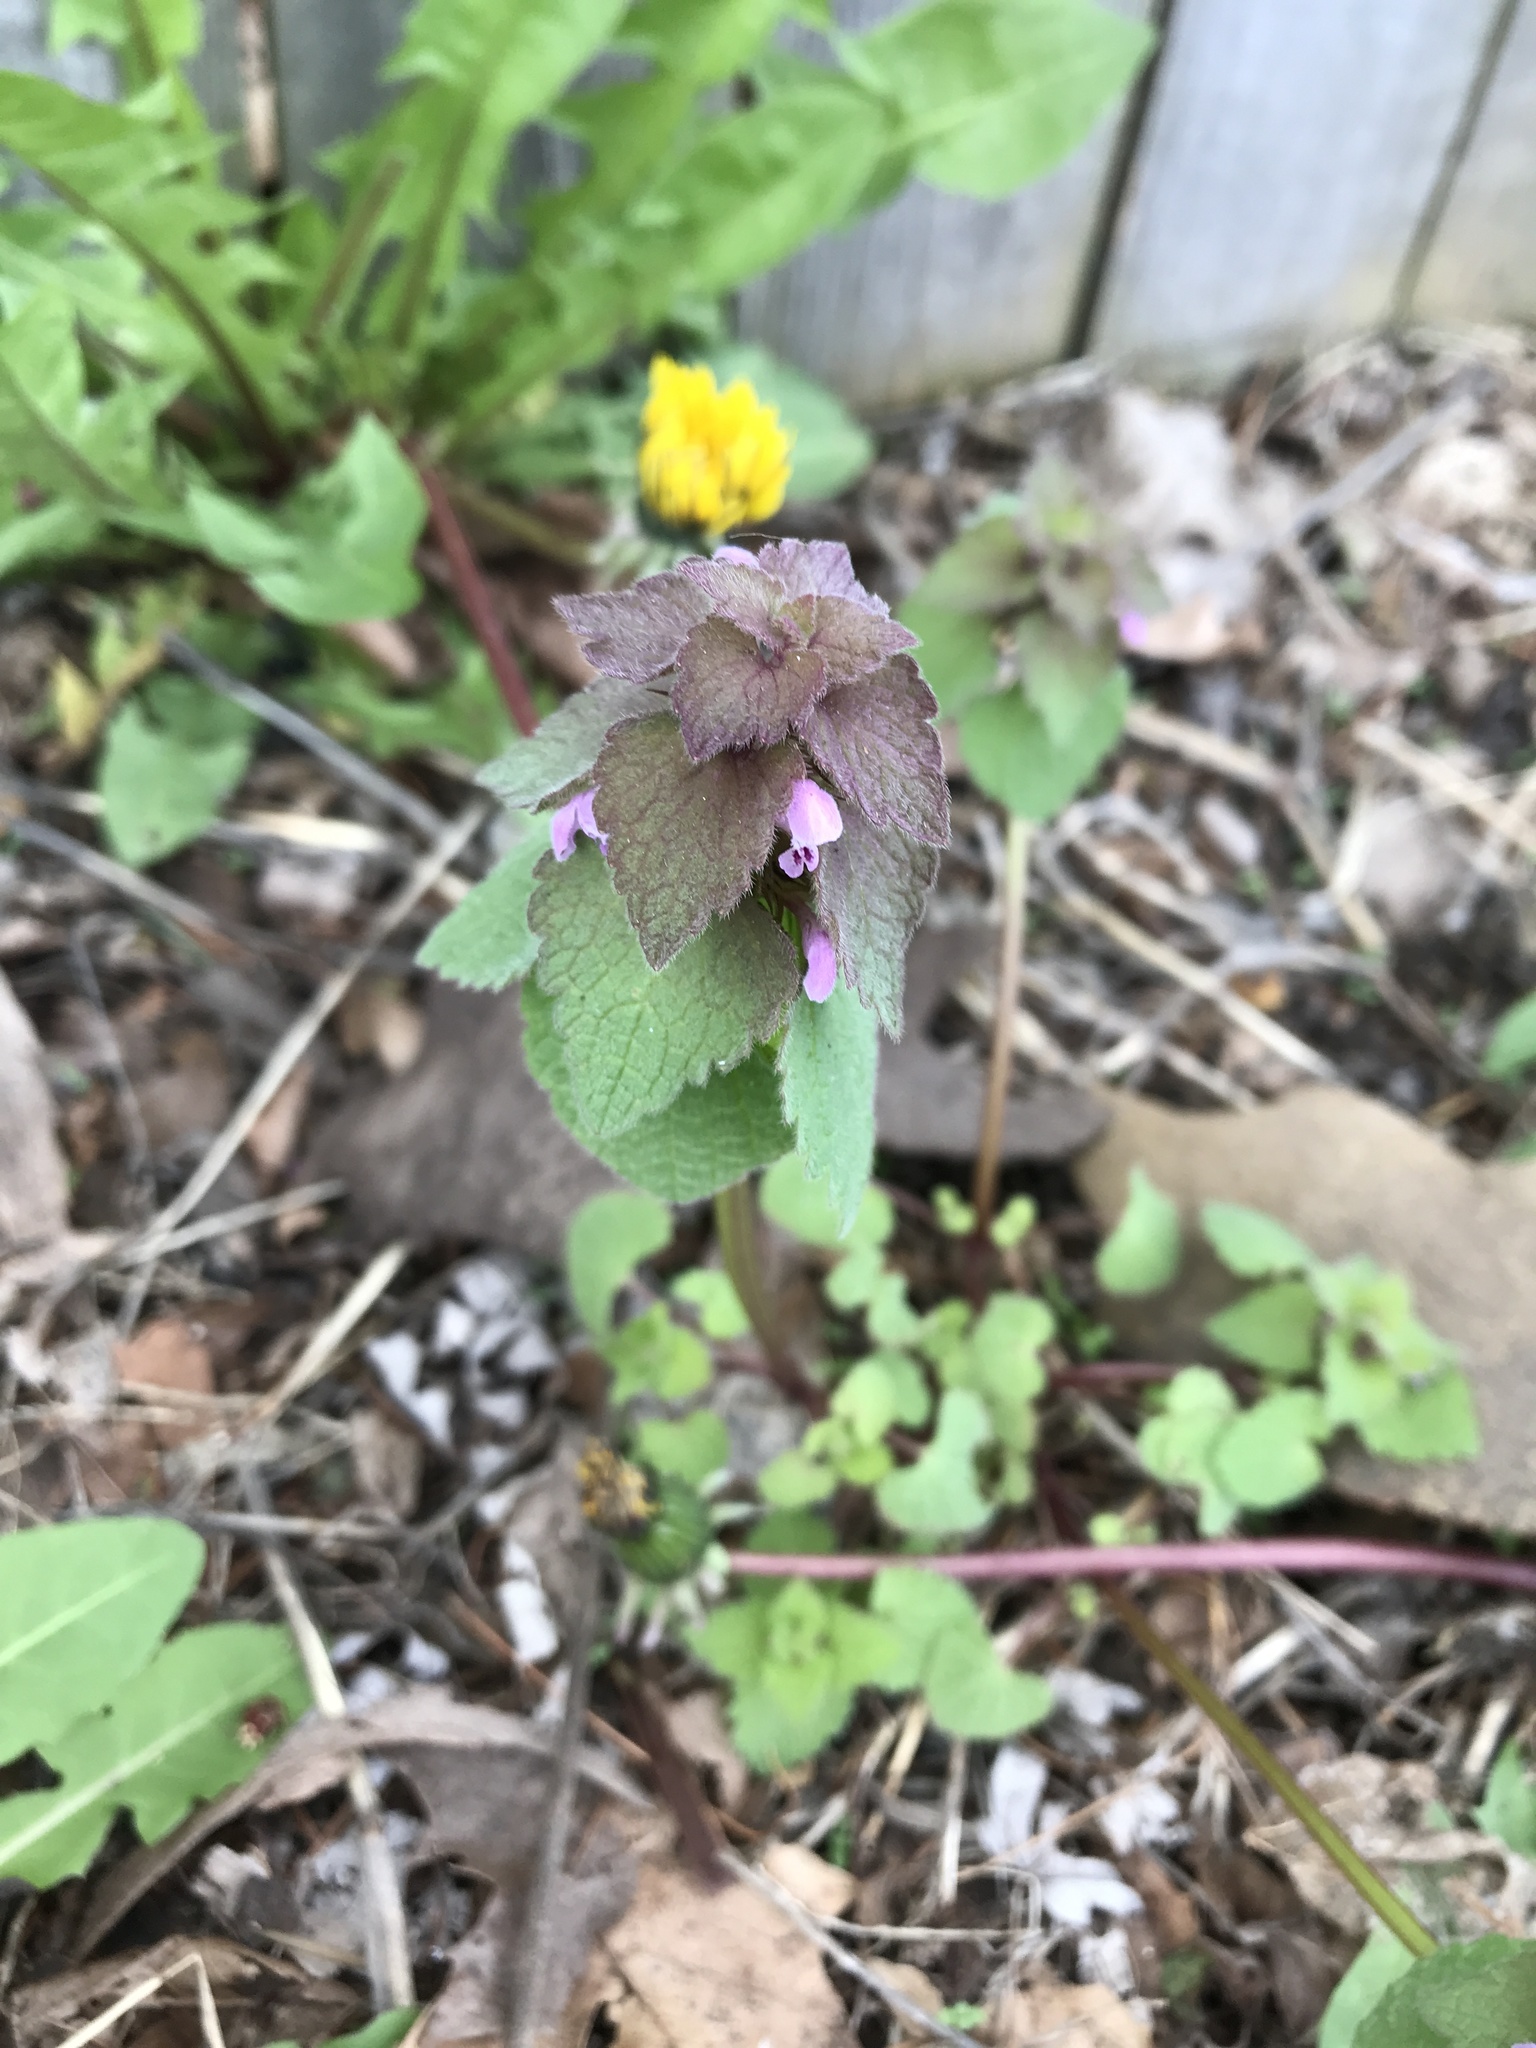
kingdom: Plantae
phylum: Tracheophyta
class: Magnoliopsida
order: Lamiales
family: Lamiaceae
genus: Lamium
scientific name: Lamium purpureum
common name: Red dead-nettle
